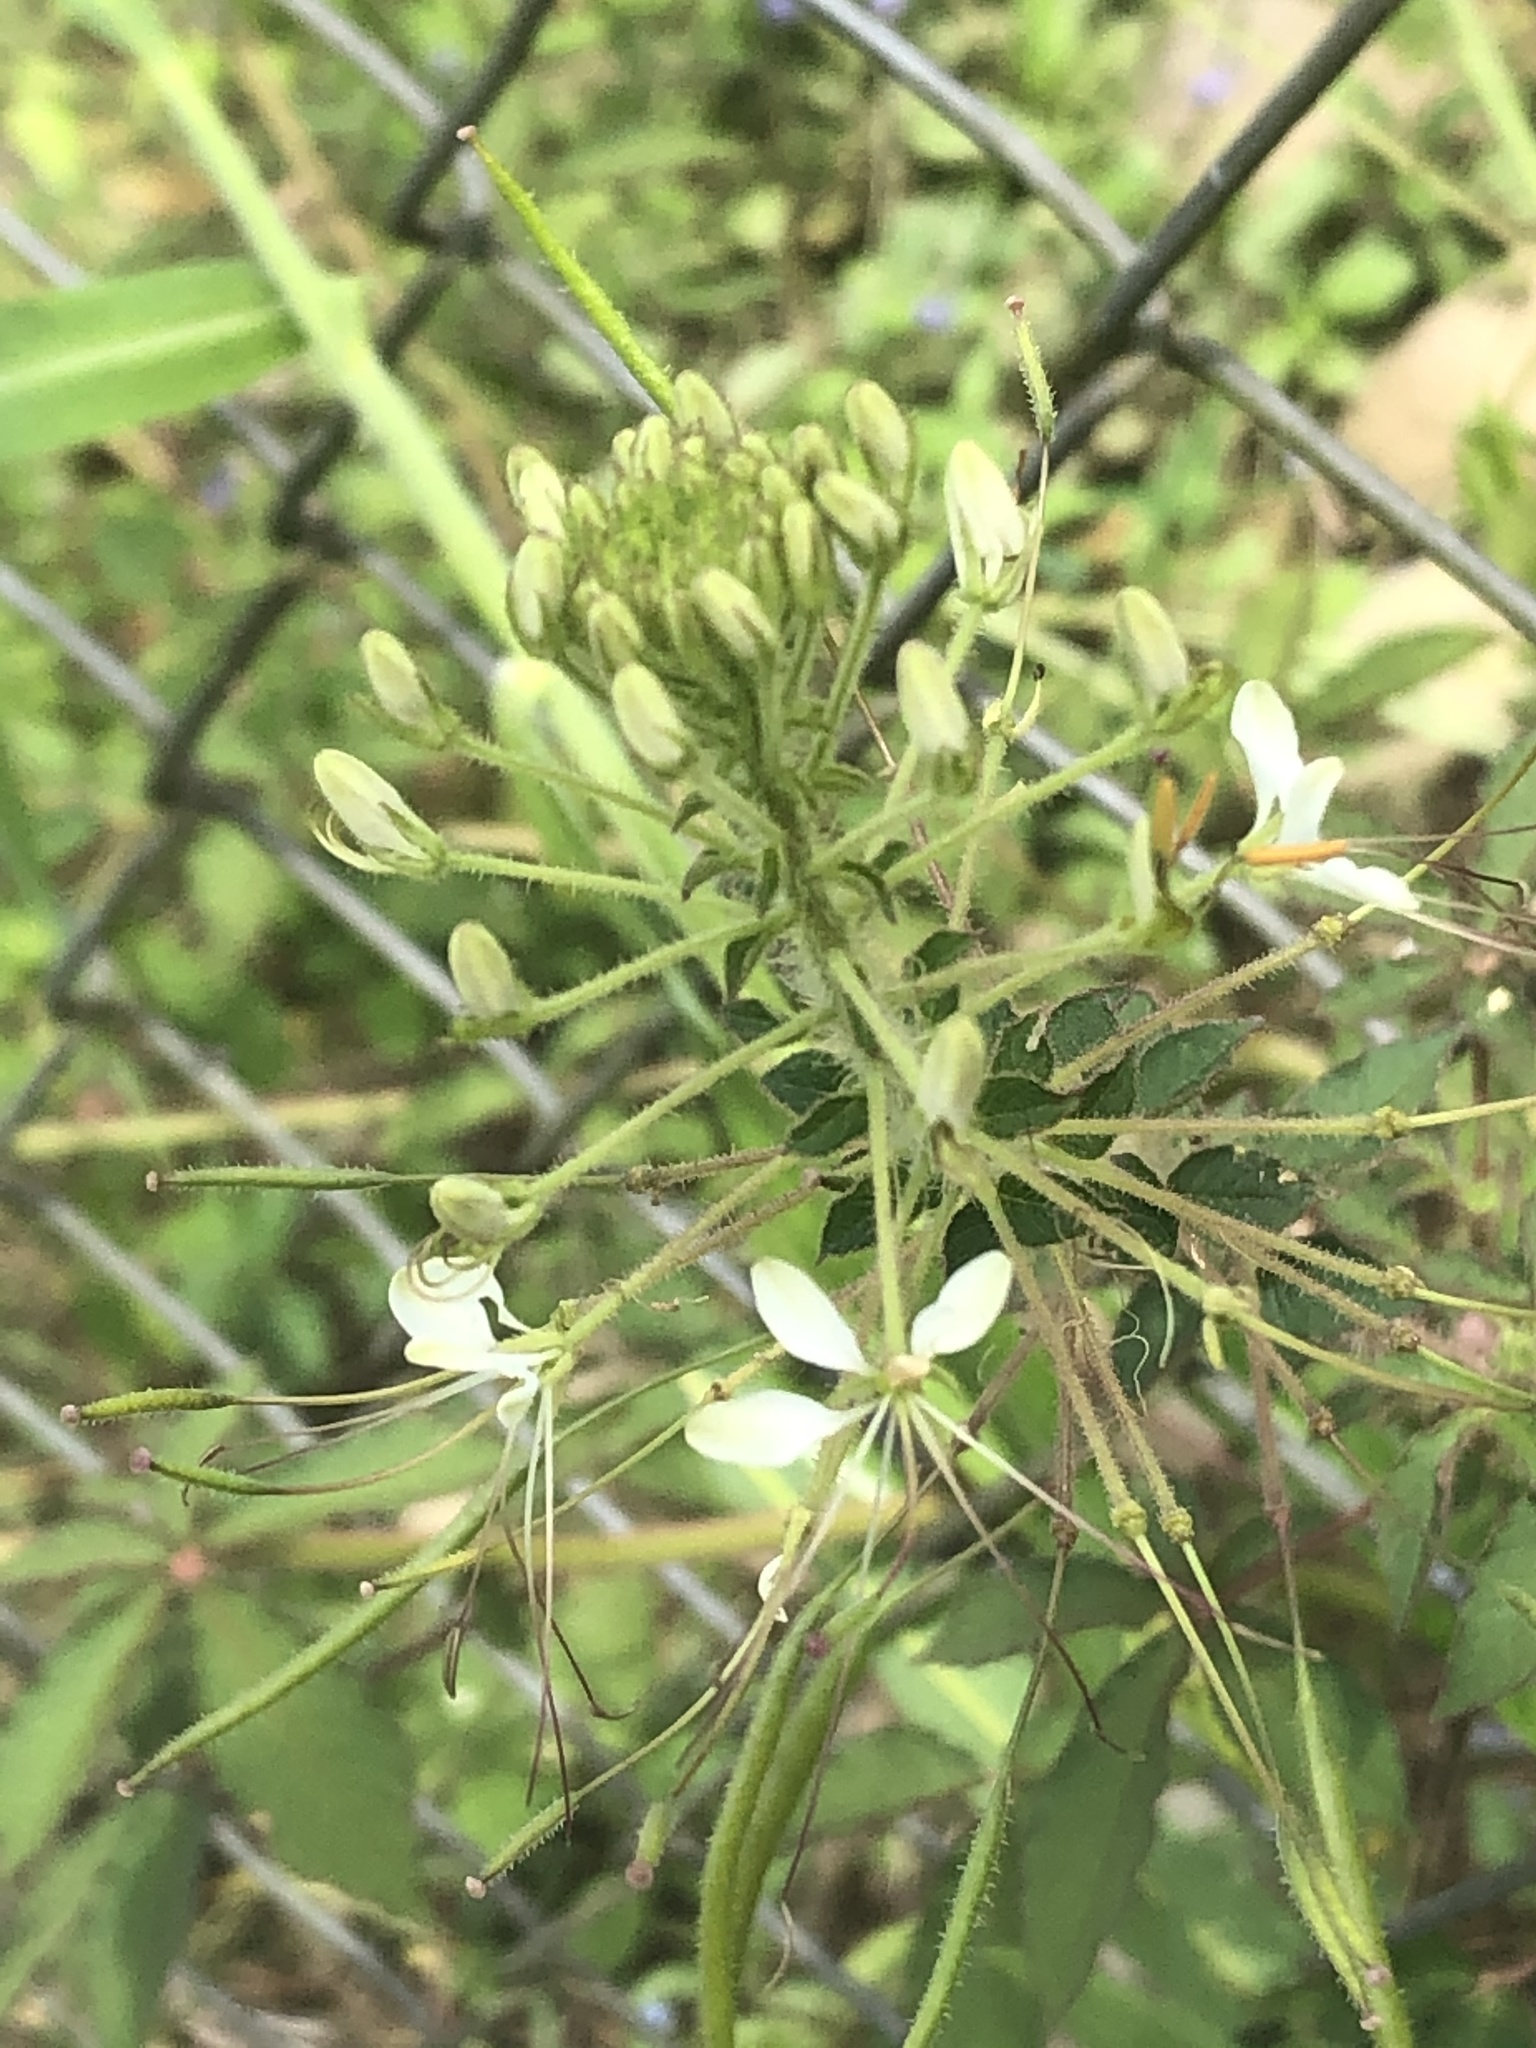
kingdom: Plantae
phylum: Tracheophyta
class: Magnoliopsida
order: Brassicales
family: Cleomaceae
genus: Gynandropsis
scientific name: Gynandropsis gynandra
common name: Spiderwisp
